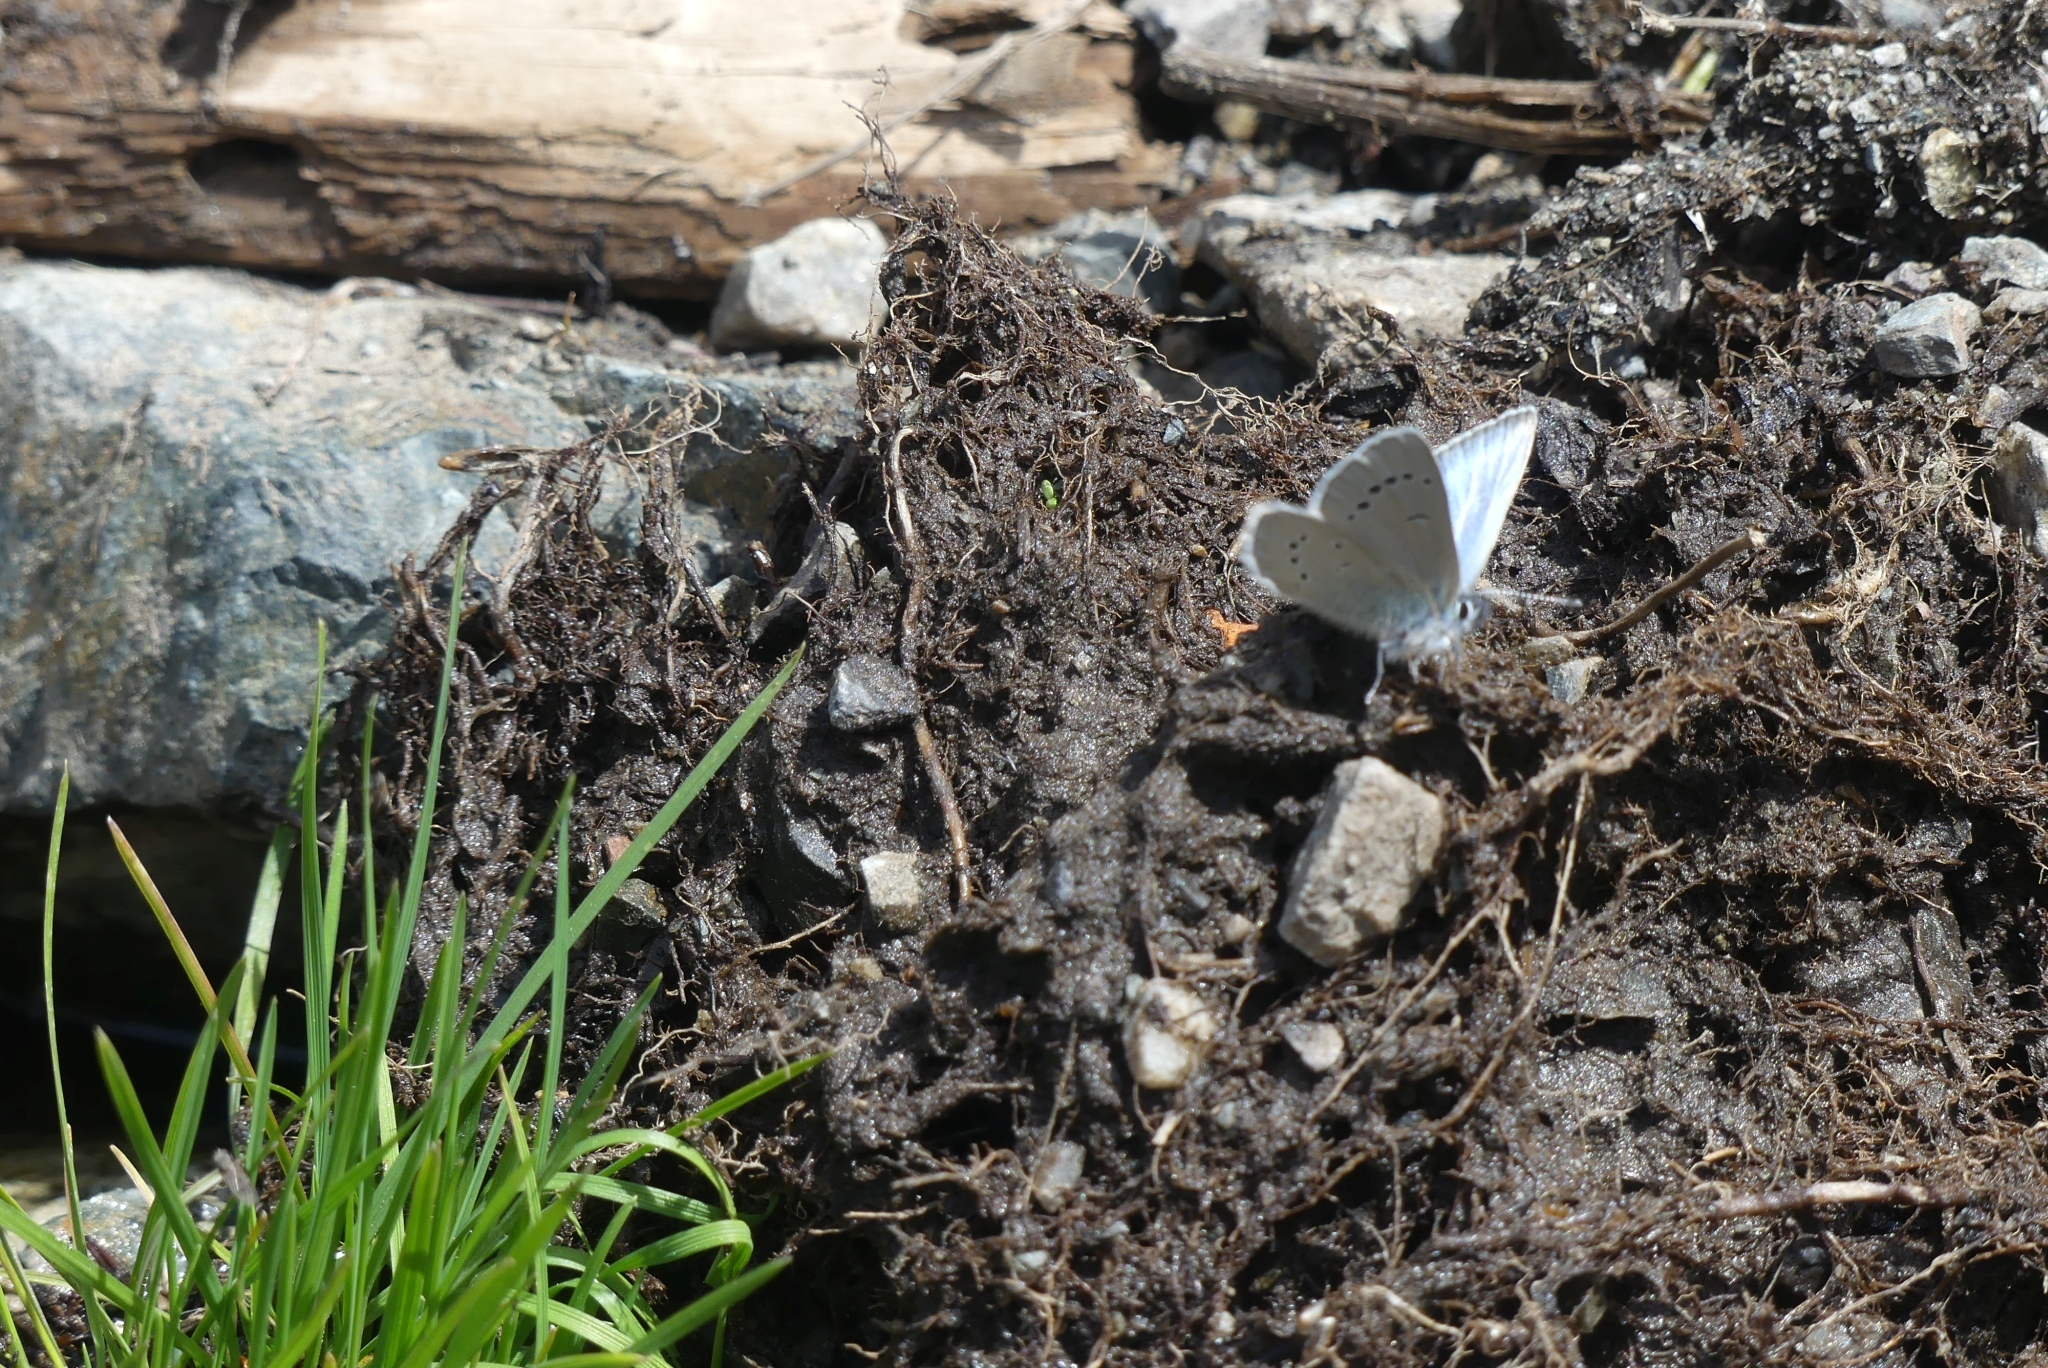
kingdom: Animalia
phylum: Arthropoda
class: Insecta
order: Lepidoptera
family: Lycaenidae
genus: Glaucopsyche
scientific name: Glaucopsyche lygdamus
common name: Silvery blue
